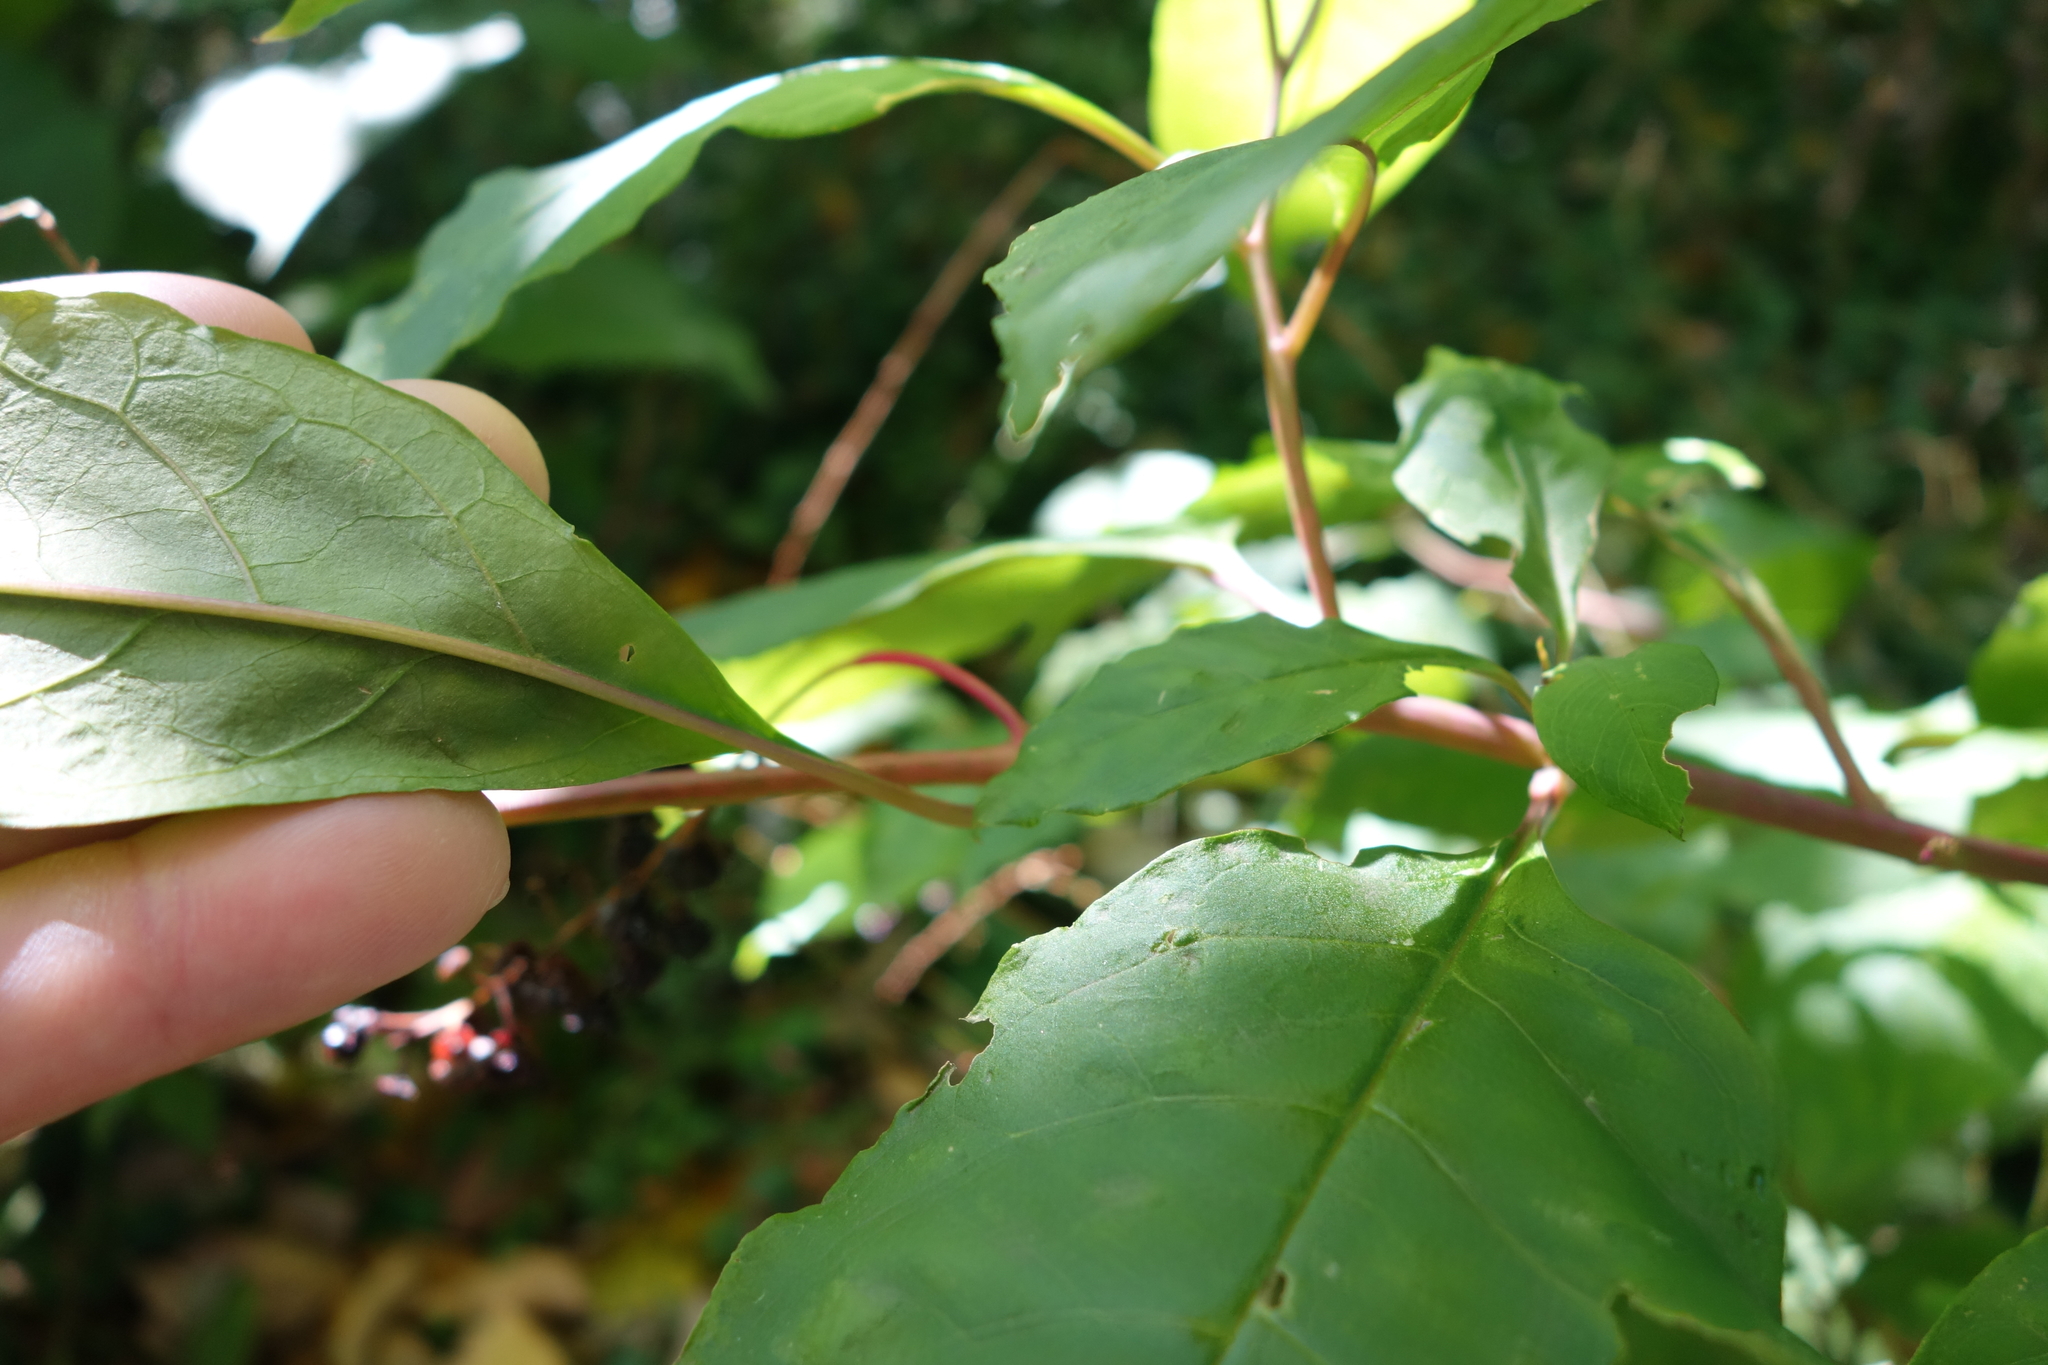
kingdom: Plantae
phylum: Tracheophyta
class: Magnoliopsida
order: Caryophyllales
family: Phytolaccaceae
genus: Phytolacca
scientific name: Phytolacca americana
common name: American pokeweed
